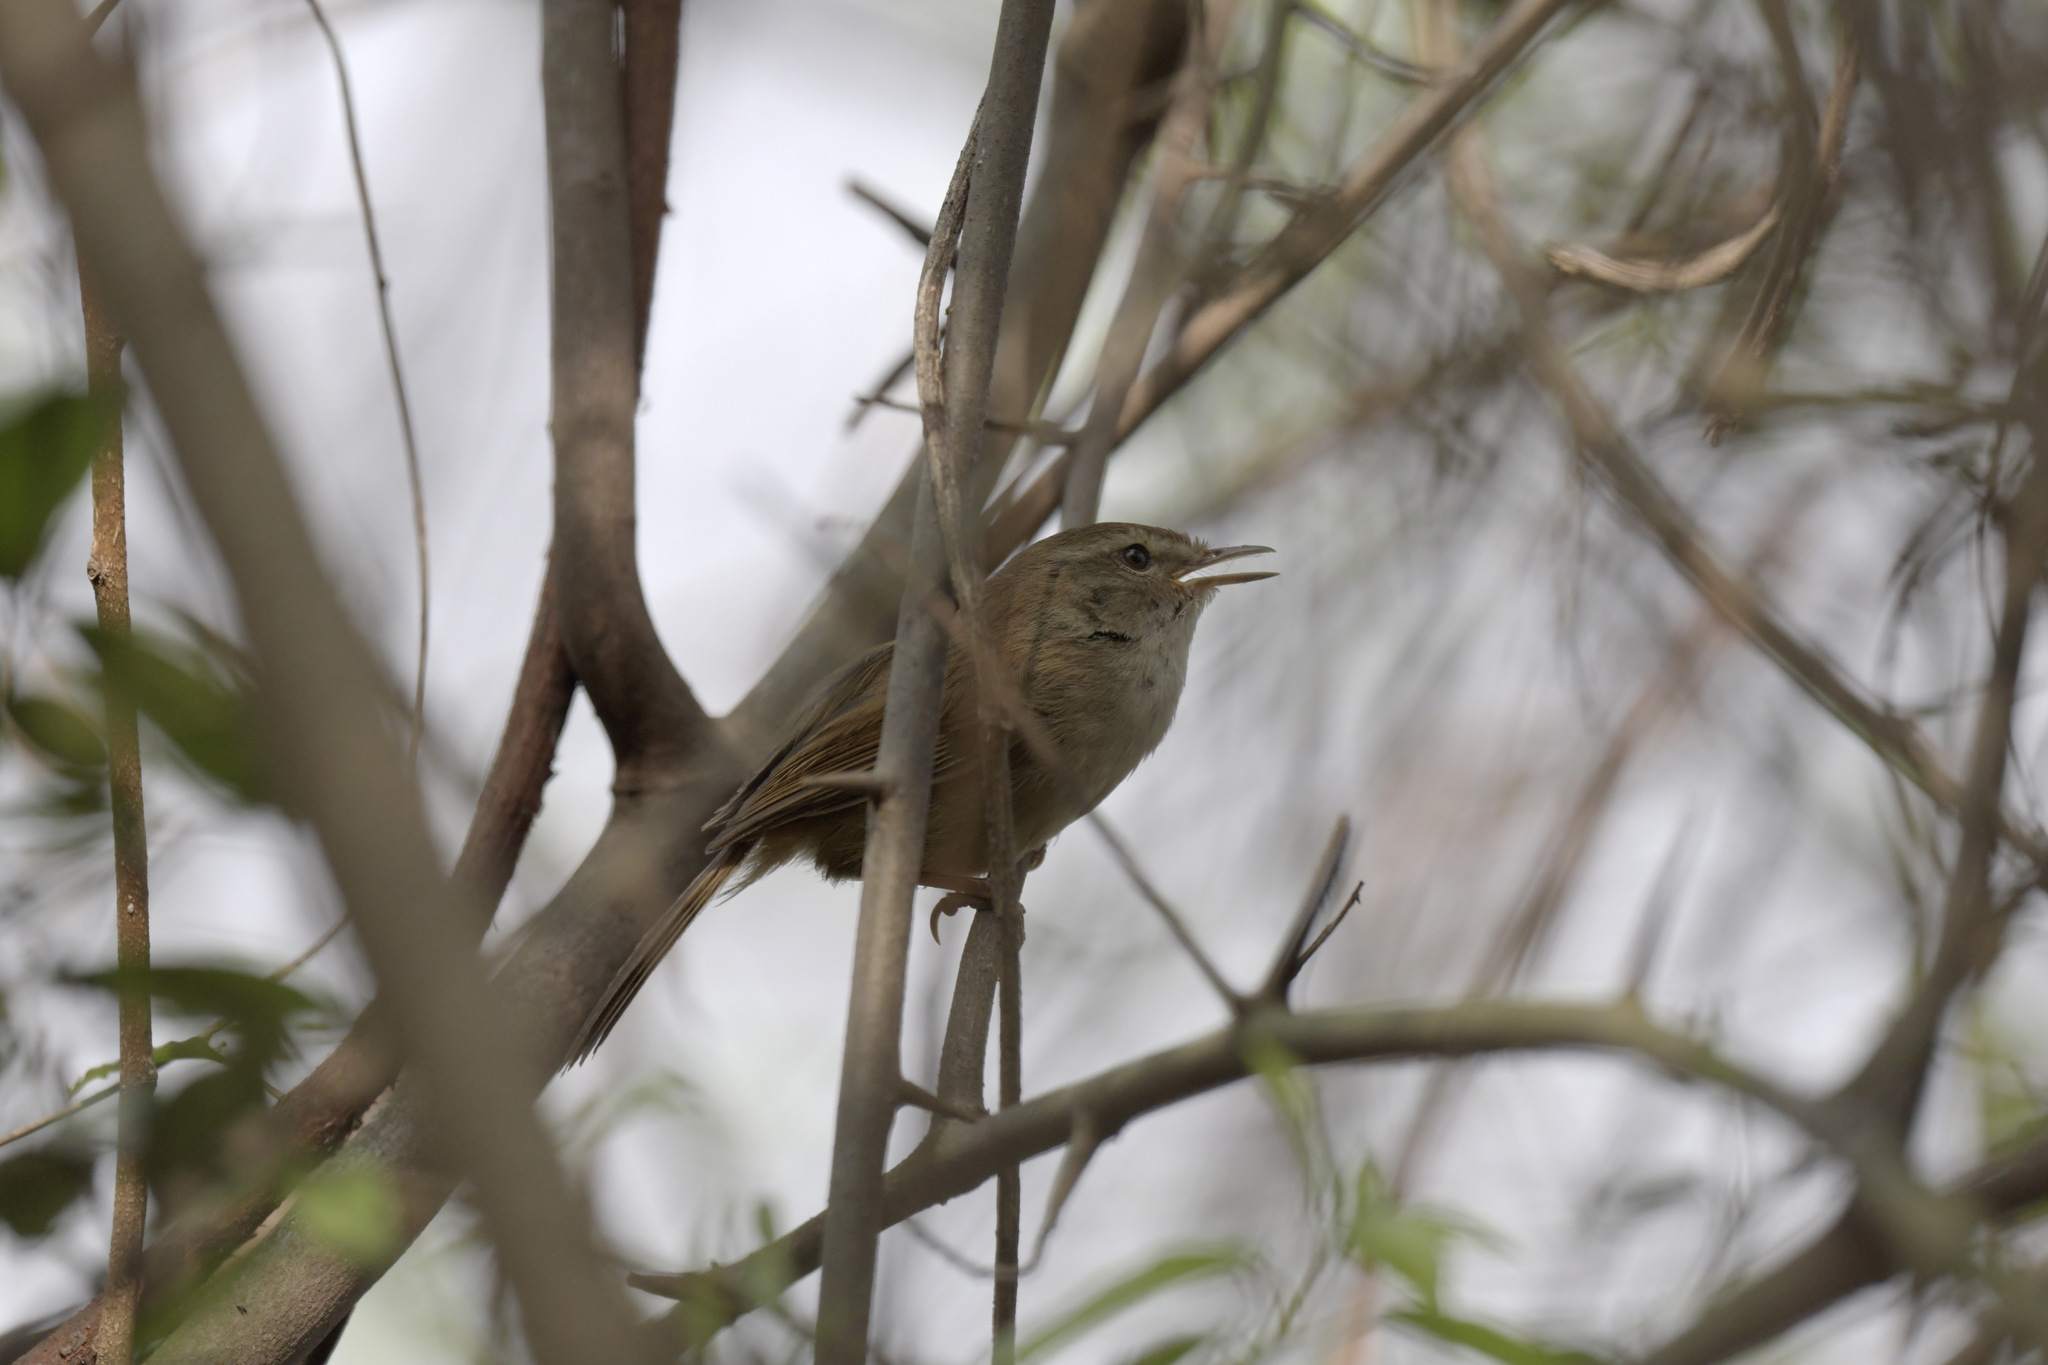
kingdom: Animalia
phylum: Chordata
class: Aves
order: Passeriformes
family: Cettiidae
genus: Horornis
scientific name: Horornis fortipes
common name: Brown-flanked bush warbler
